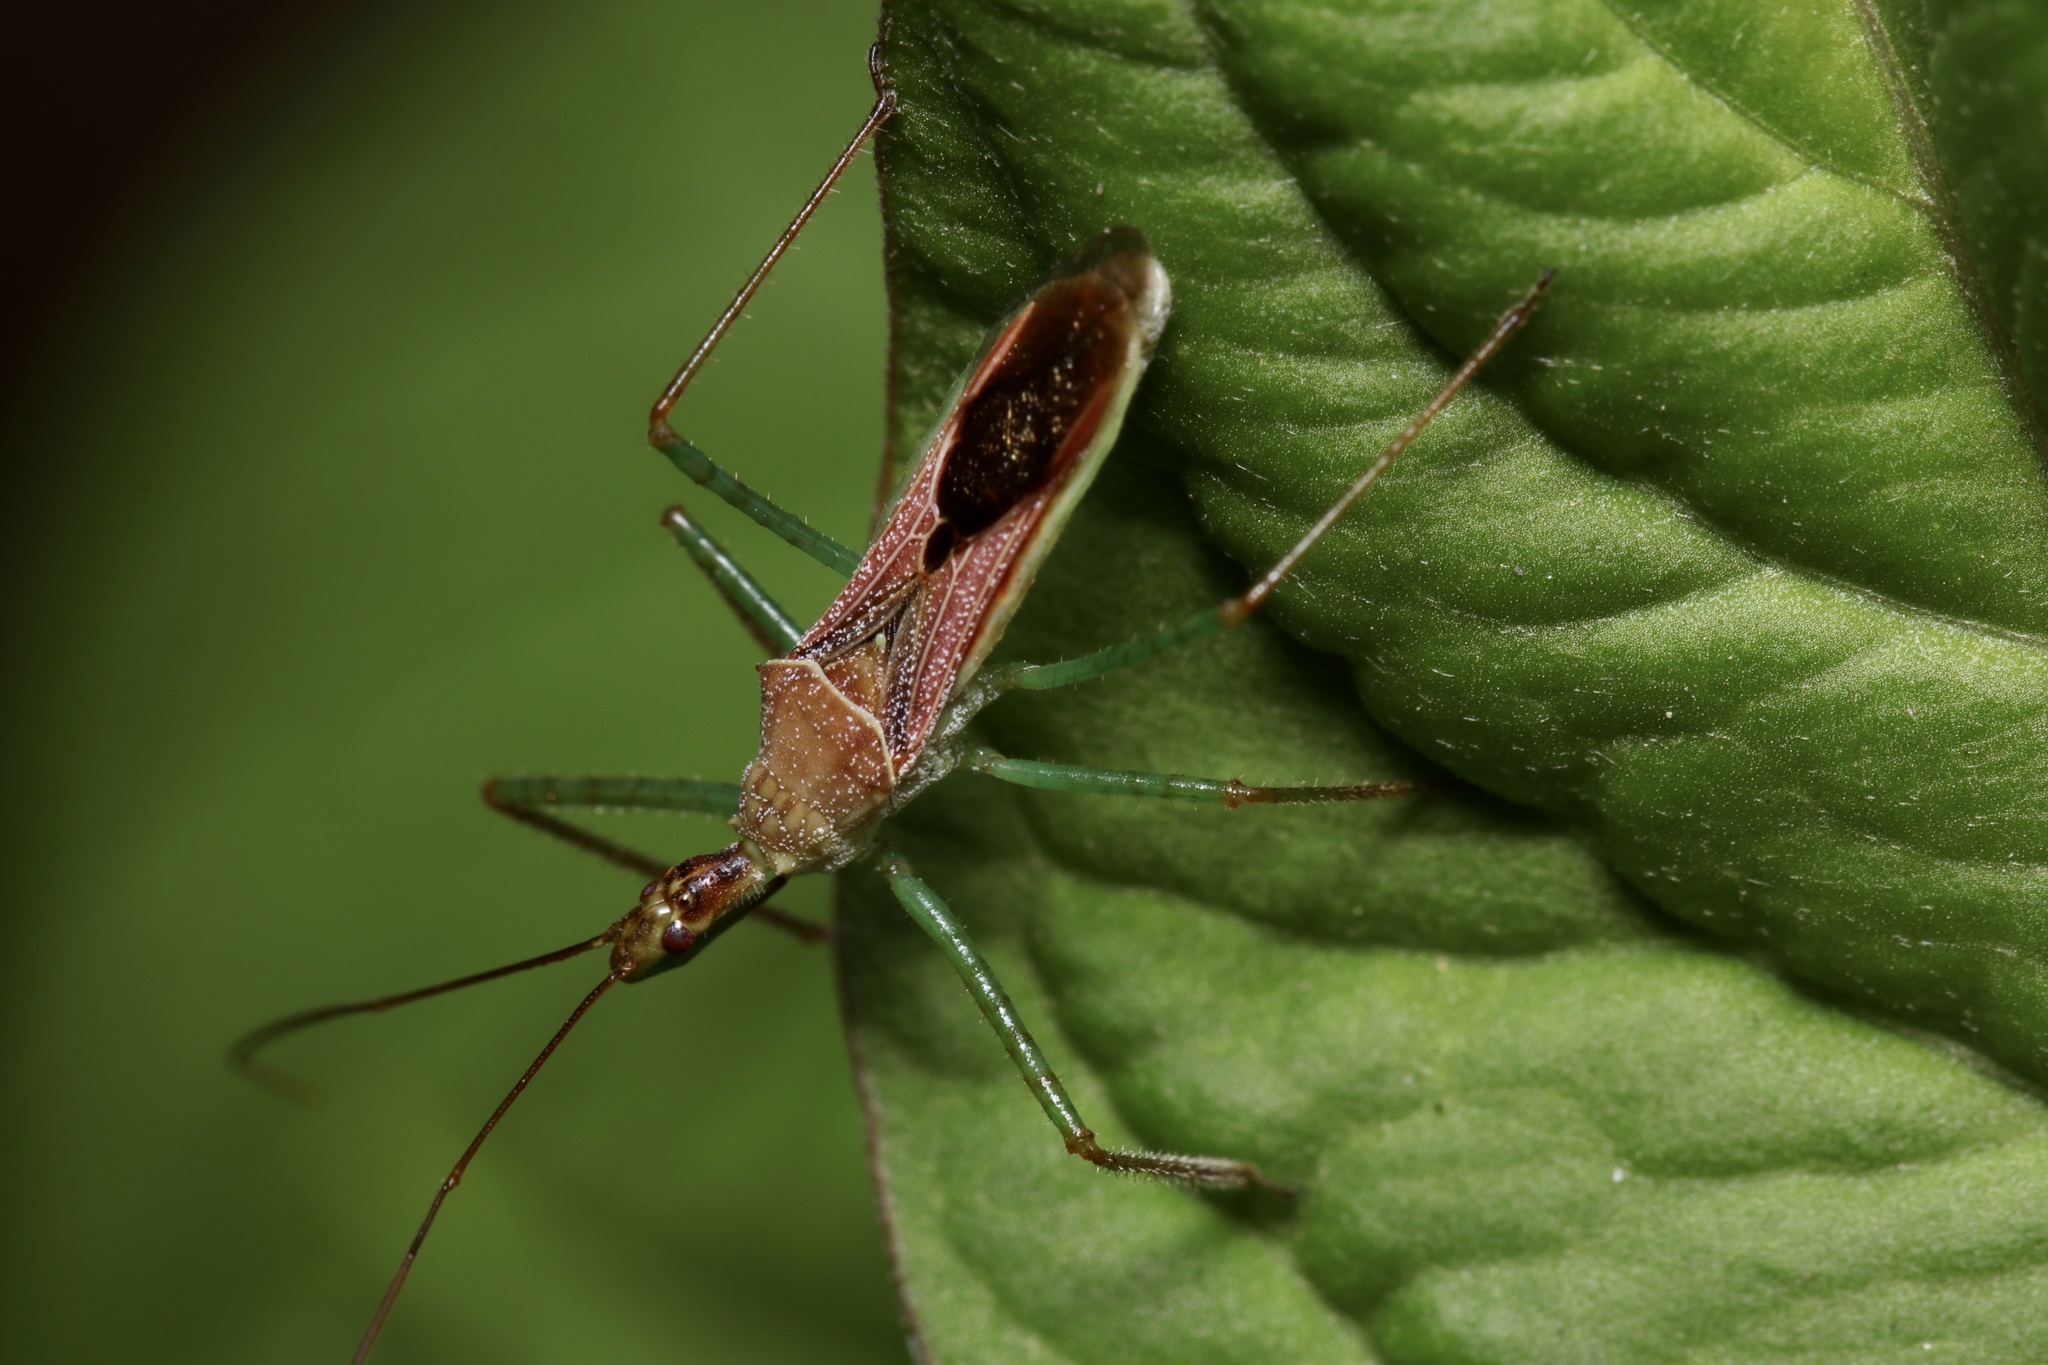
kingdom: Animalia
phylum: Arthropoda
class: Insecta
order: Hemiptera
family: Reduviidae
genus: Zelus
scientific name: Zelus renardii
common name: Assassin bug
